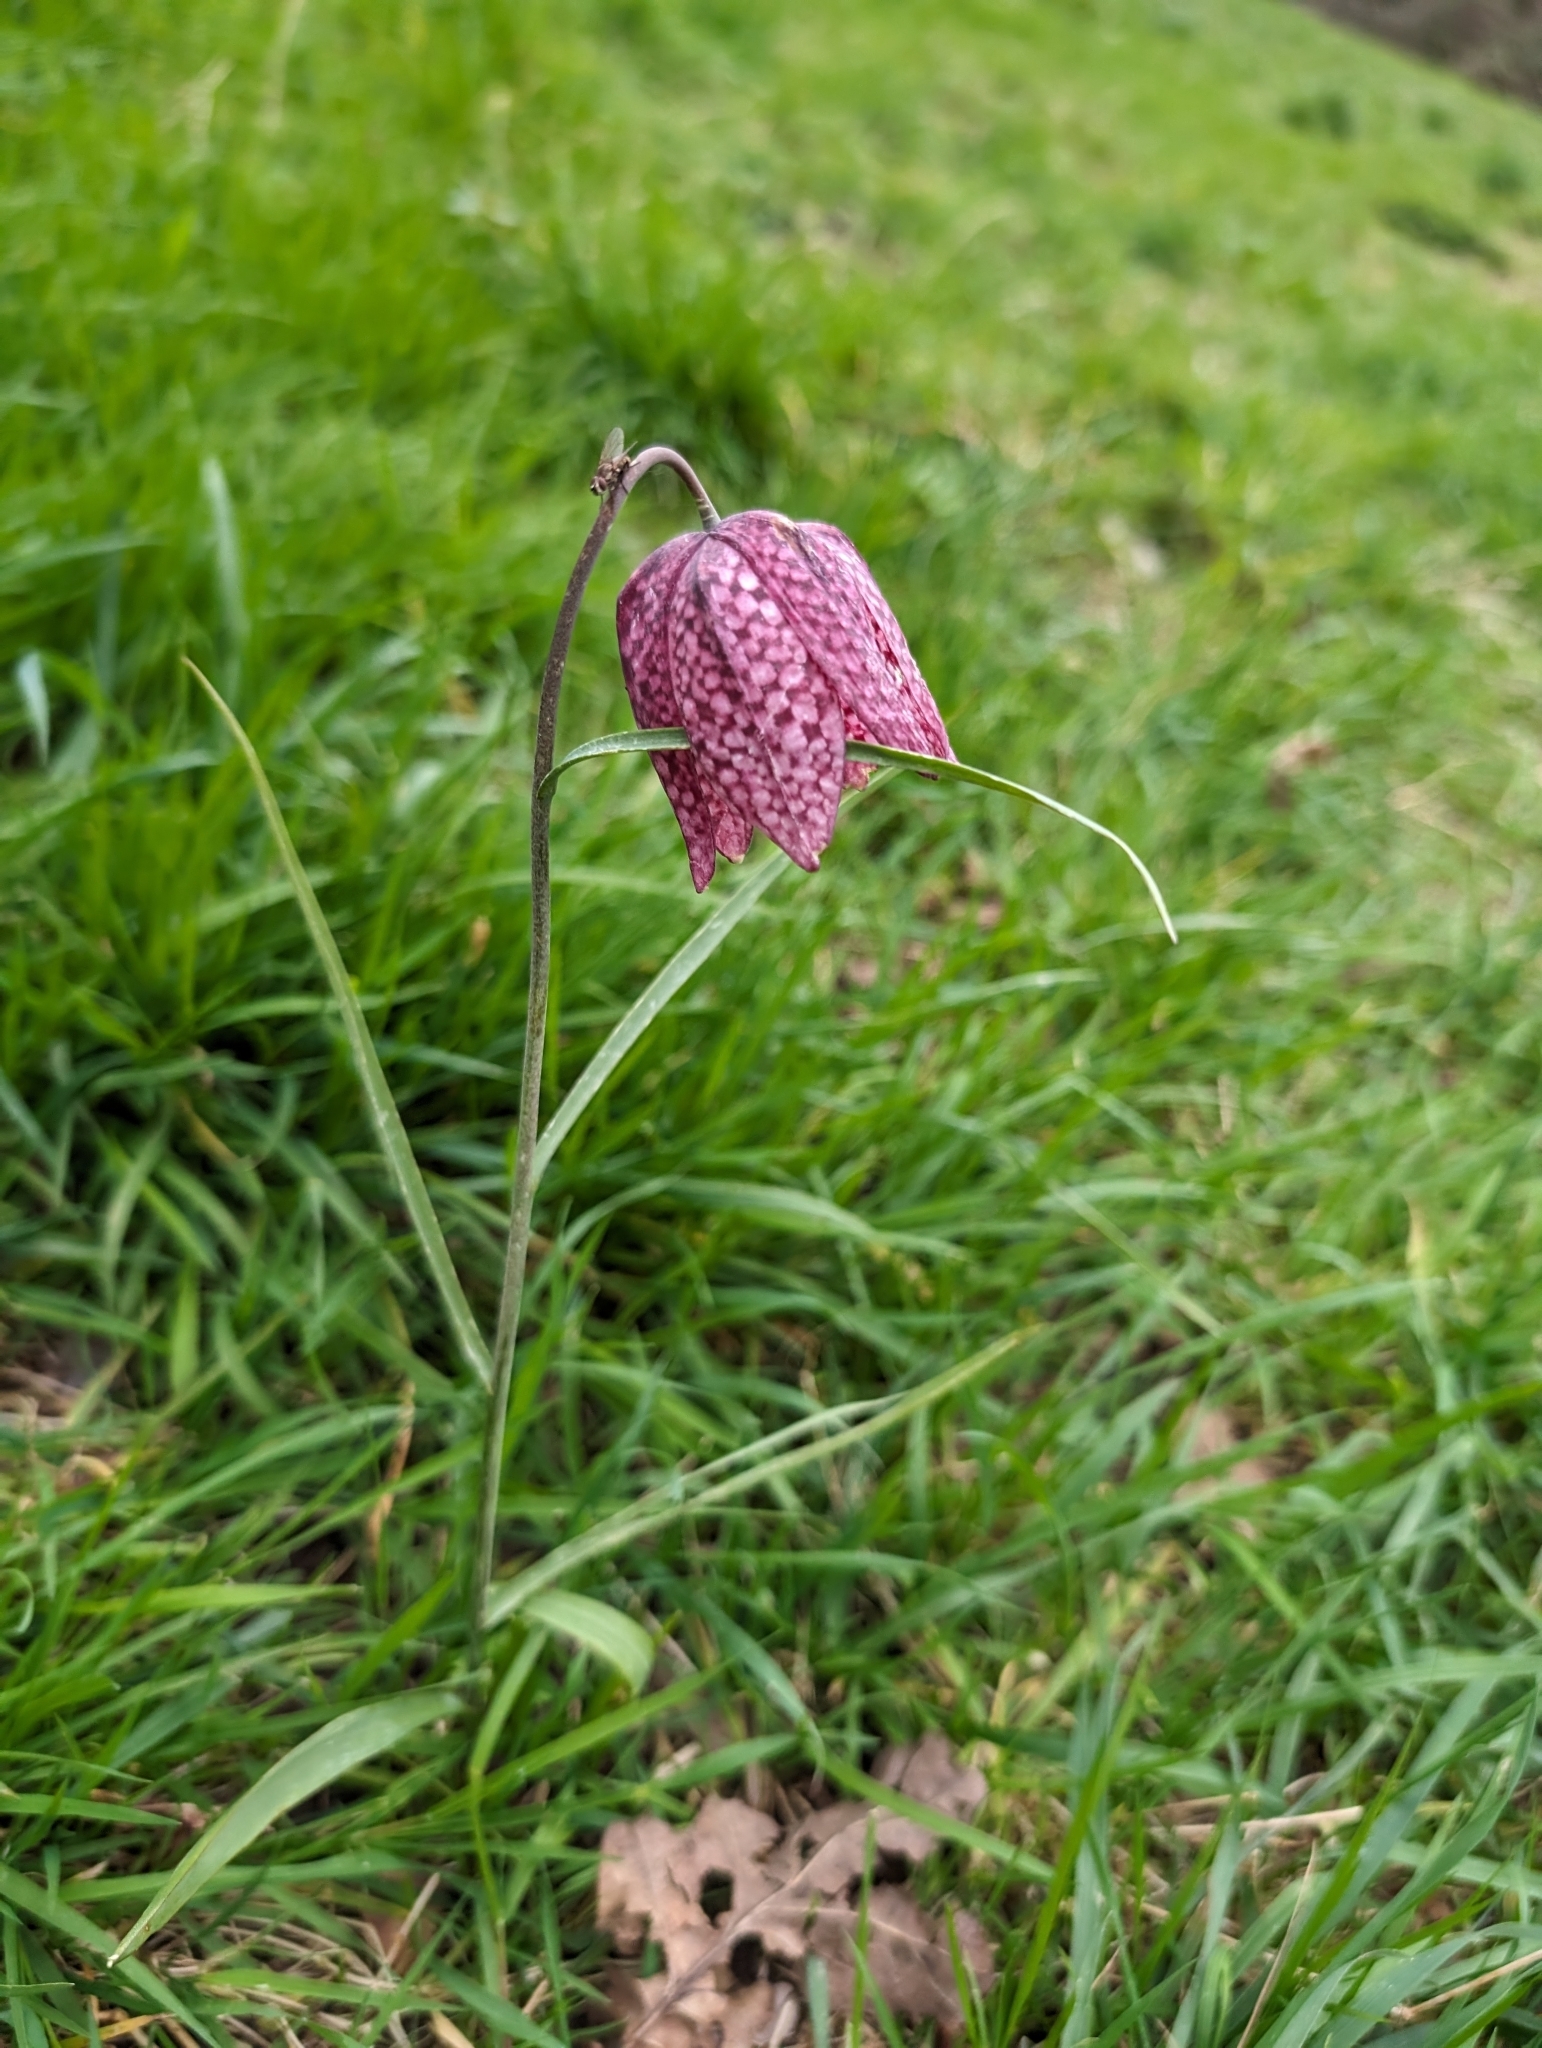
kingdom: Plantae
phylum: Tracheophyta
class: Liliopsida
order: Liliales
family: Liliaceae
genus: Fritillaria
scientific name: Fritillaria meleagris
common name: Fritillary
